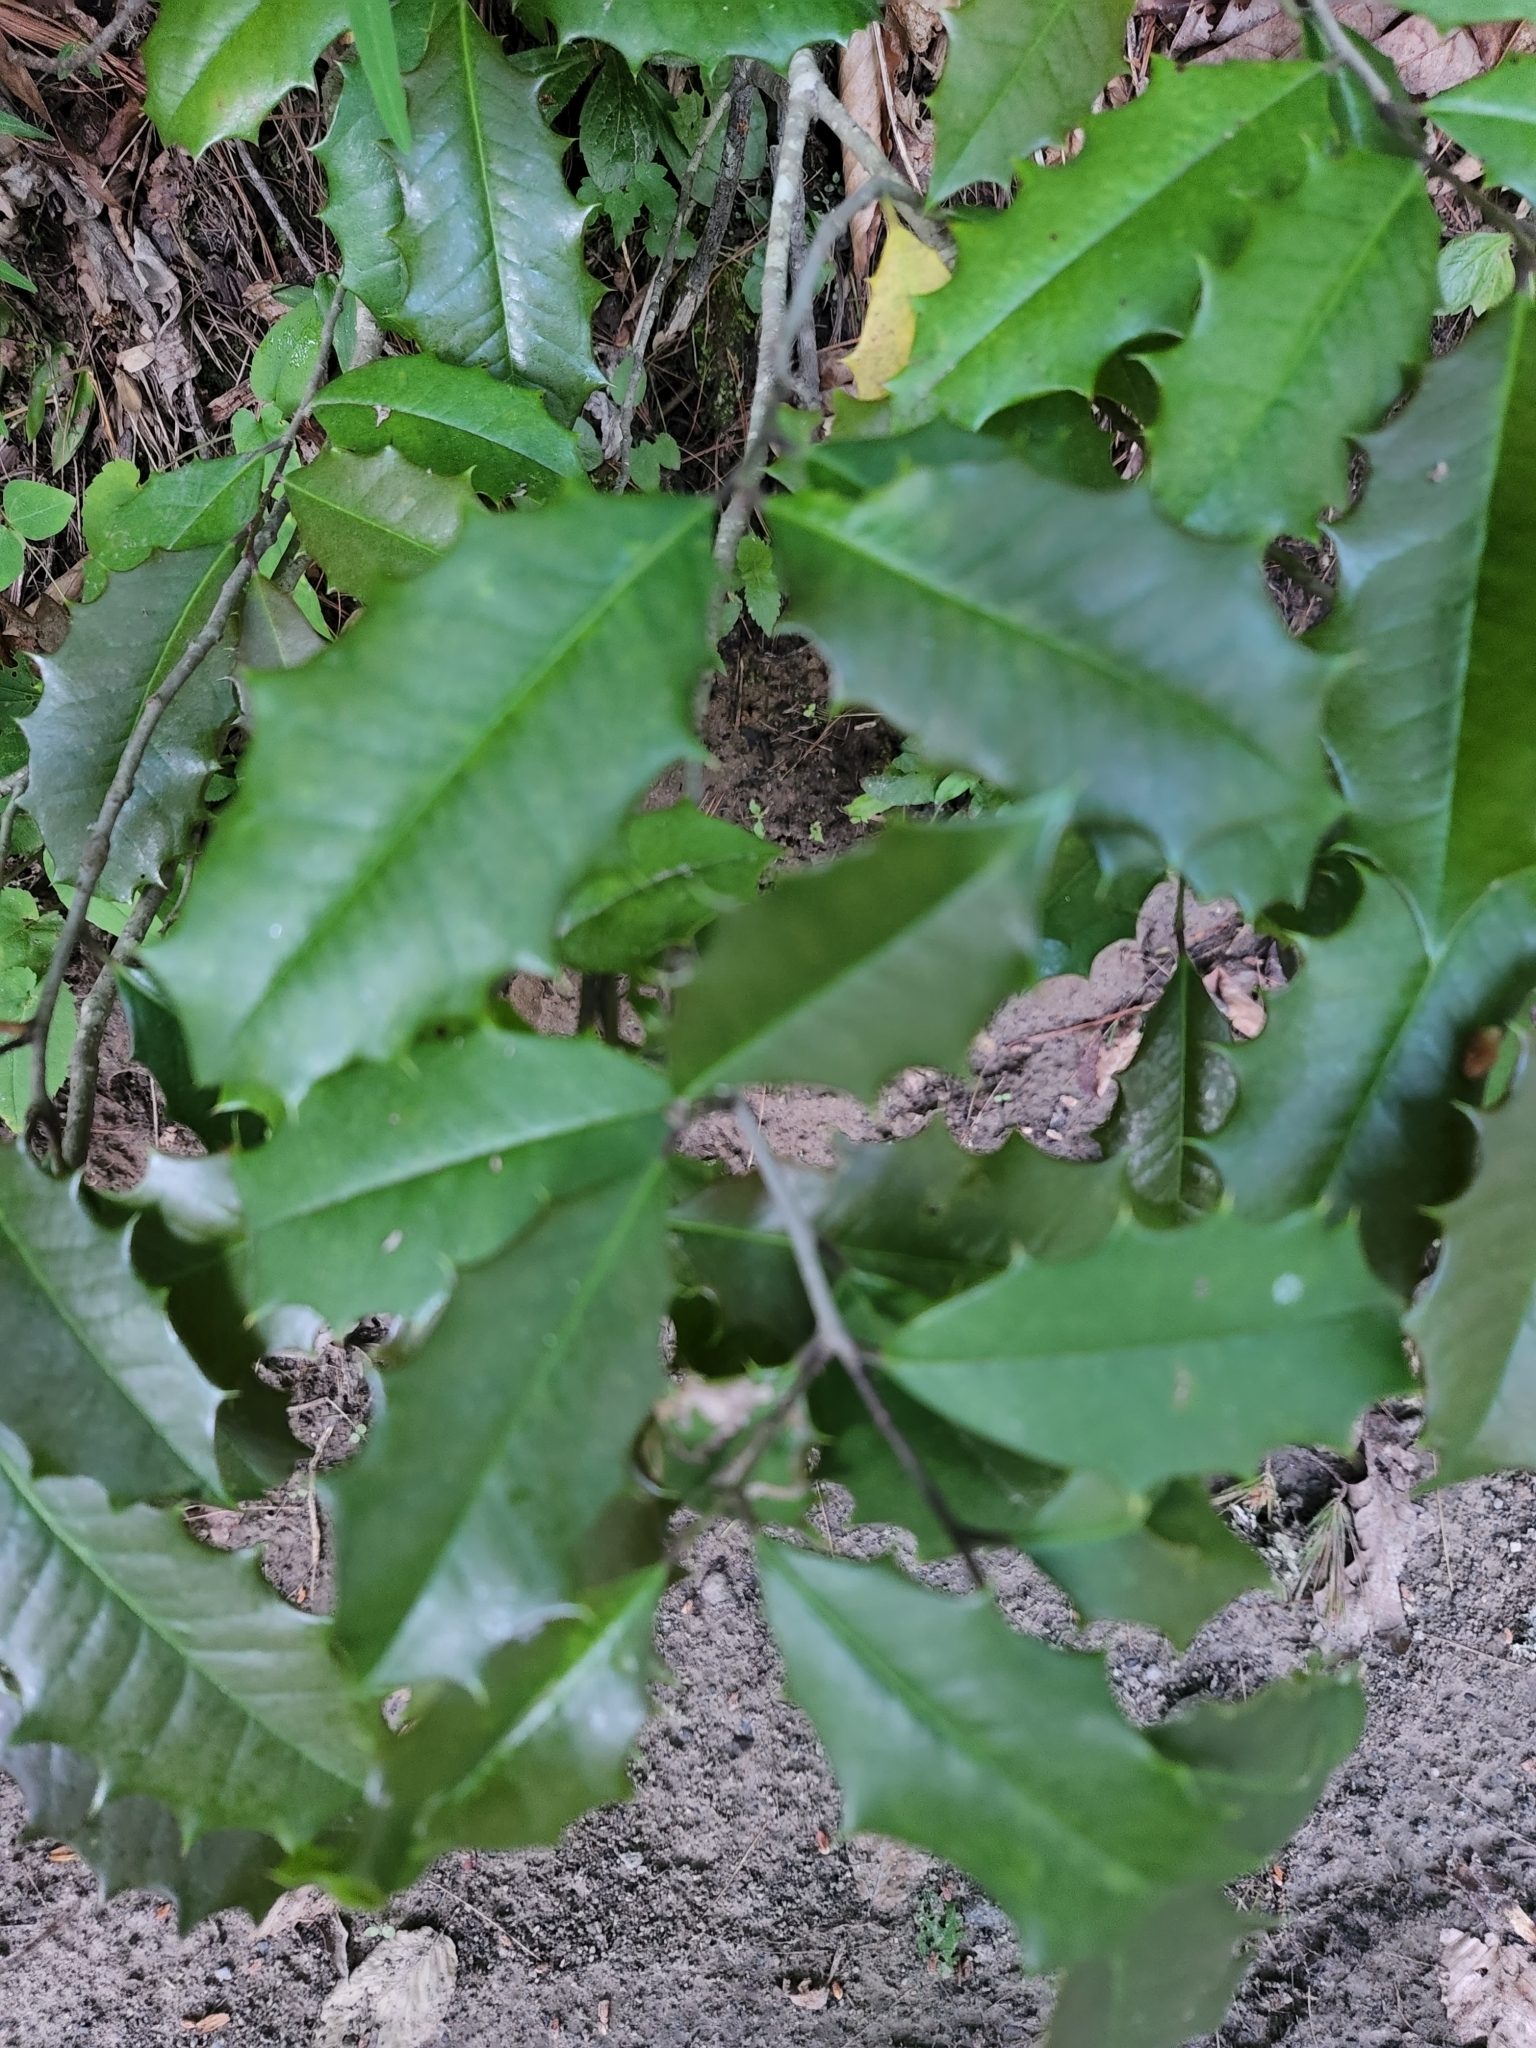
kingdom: Plantae
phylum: Tracheophyta
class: Magnoliopsida
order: Aquifoliales
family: Aquifoliaceae
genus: Ilex
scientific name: Ilex opaca
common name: American holly
